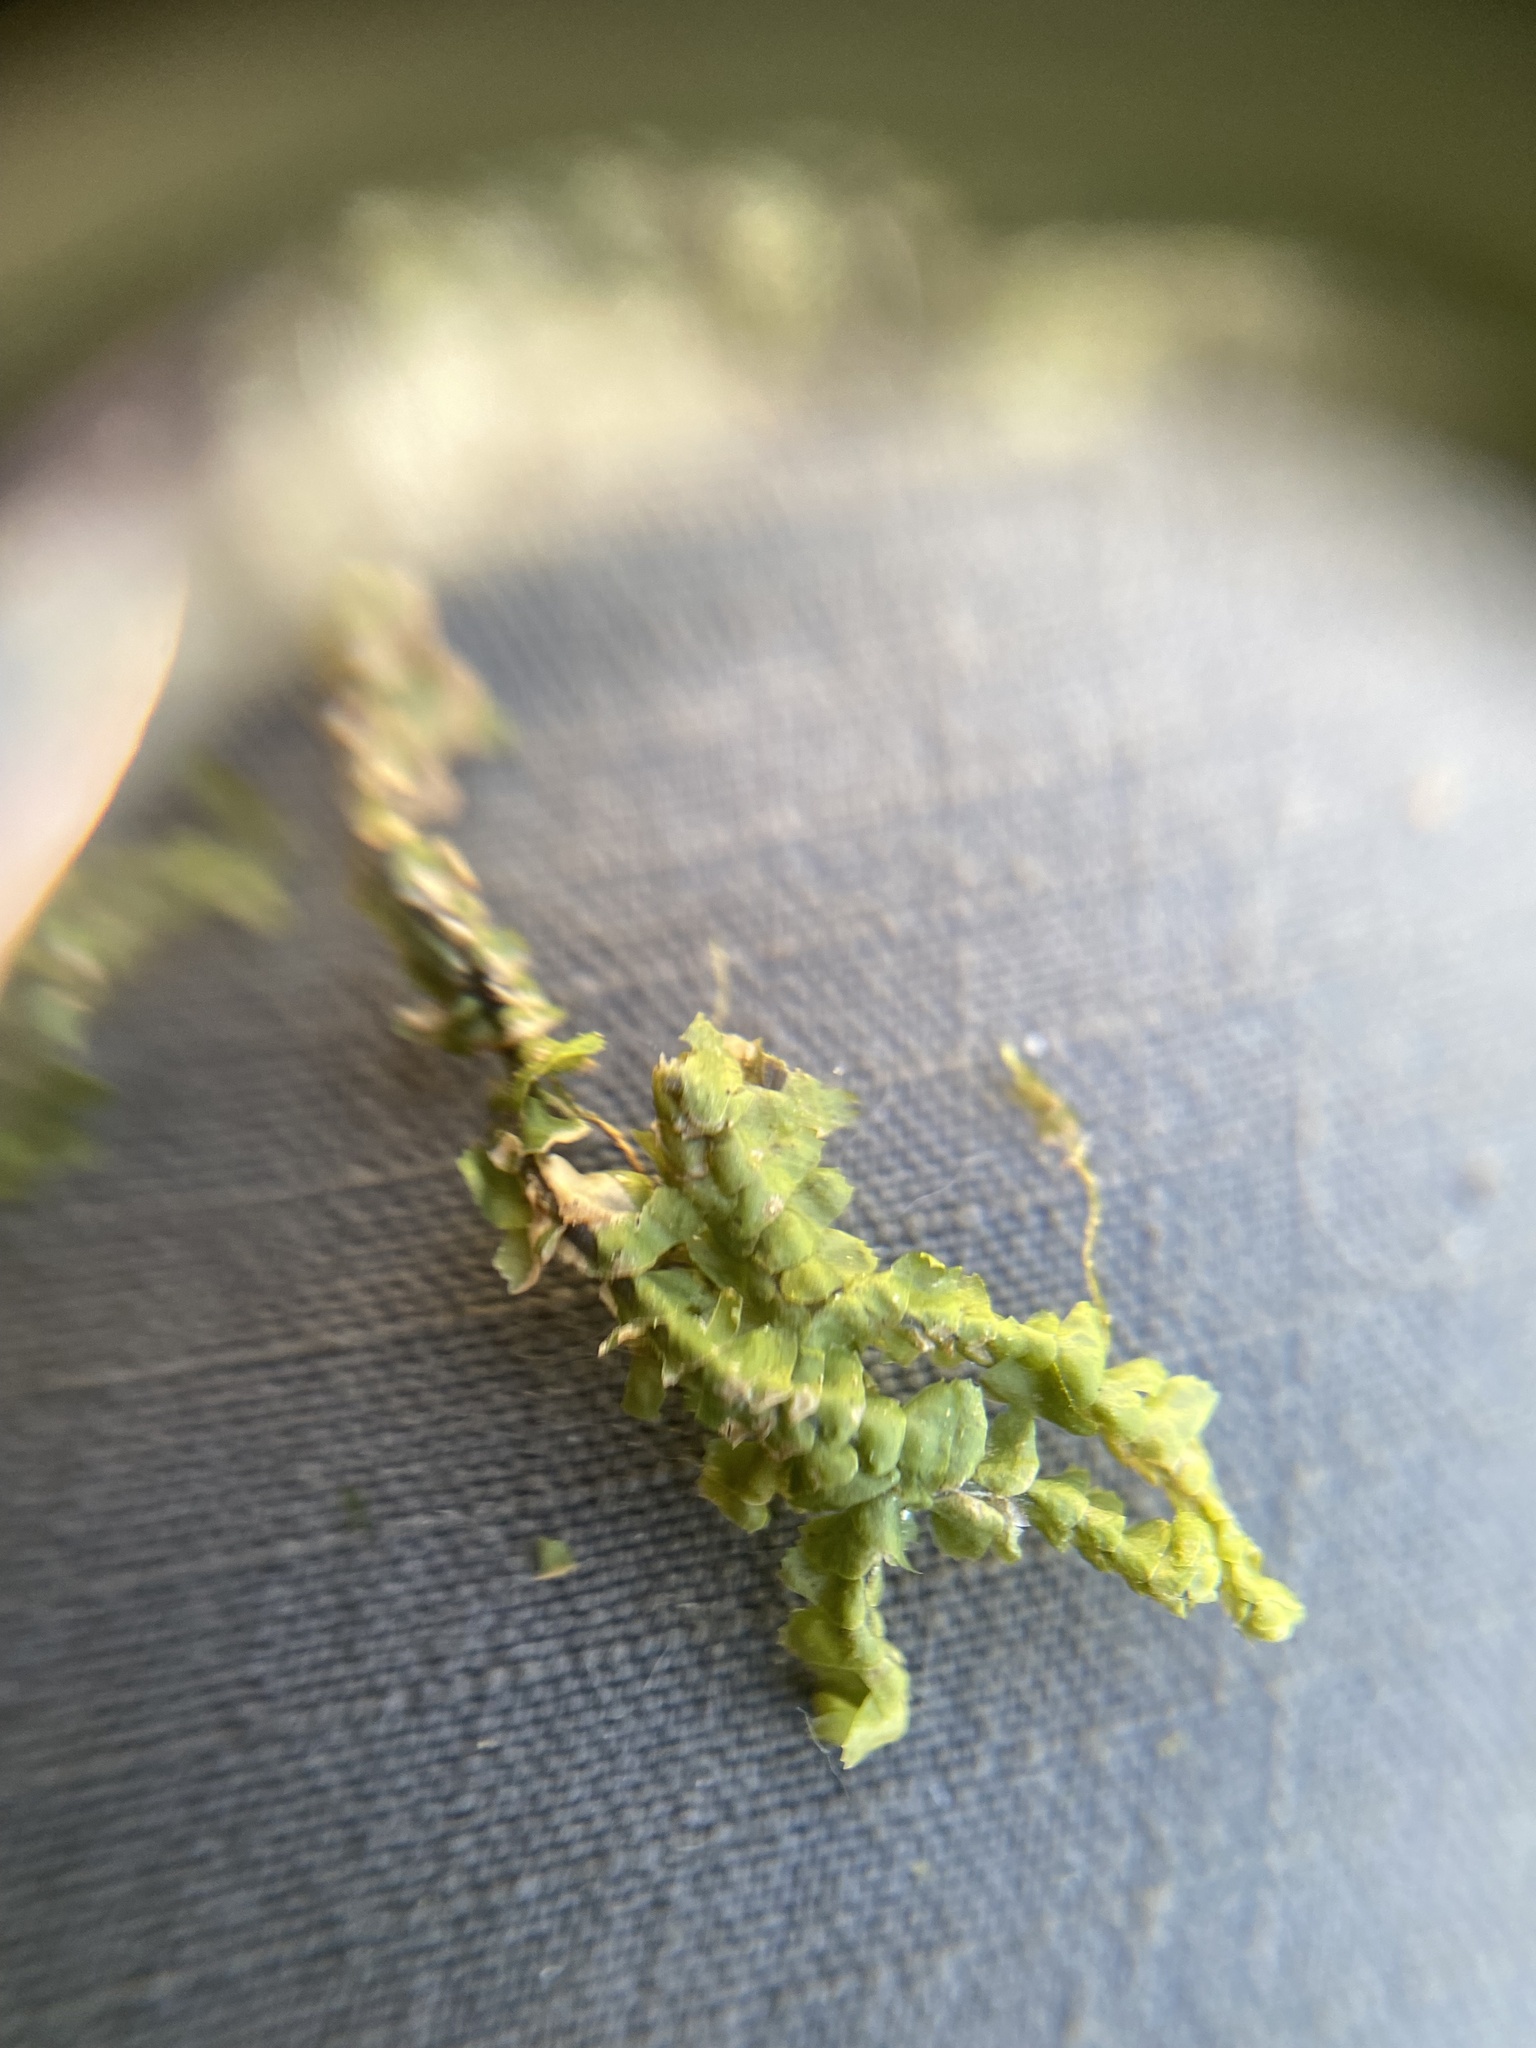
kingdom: Plantae
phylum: Marchantiophyta
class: Jungermanniopsida
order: Jungermanniales
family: Lepidoziaceae
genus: Bazzania
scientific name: Bazzania trilobata
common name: Three-lobed whipwort
